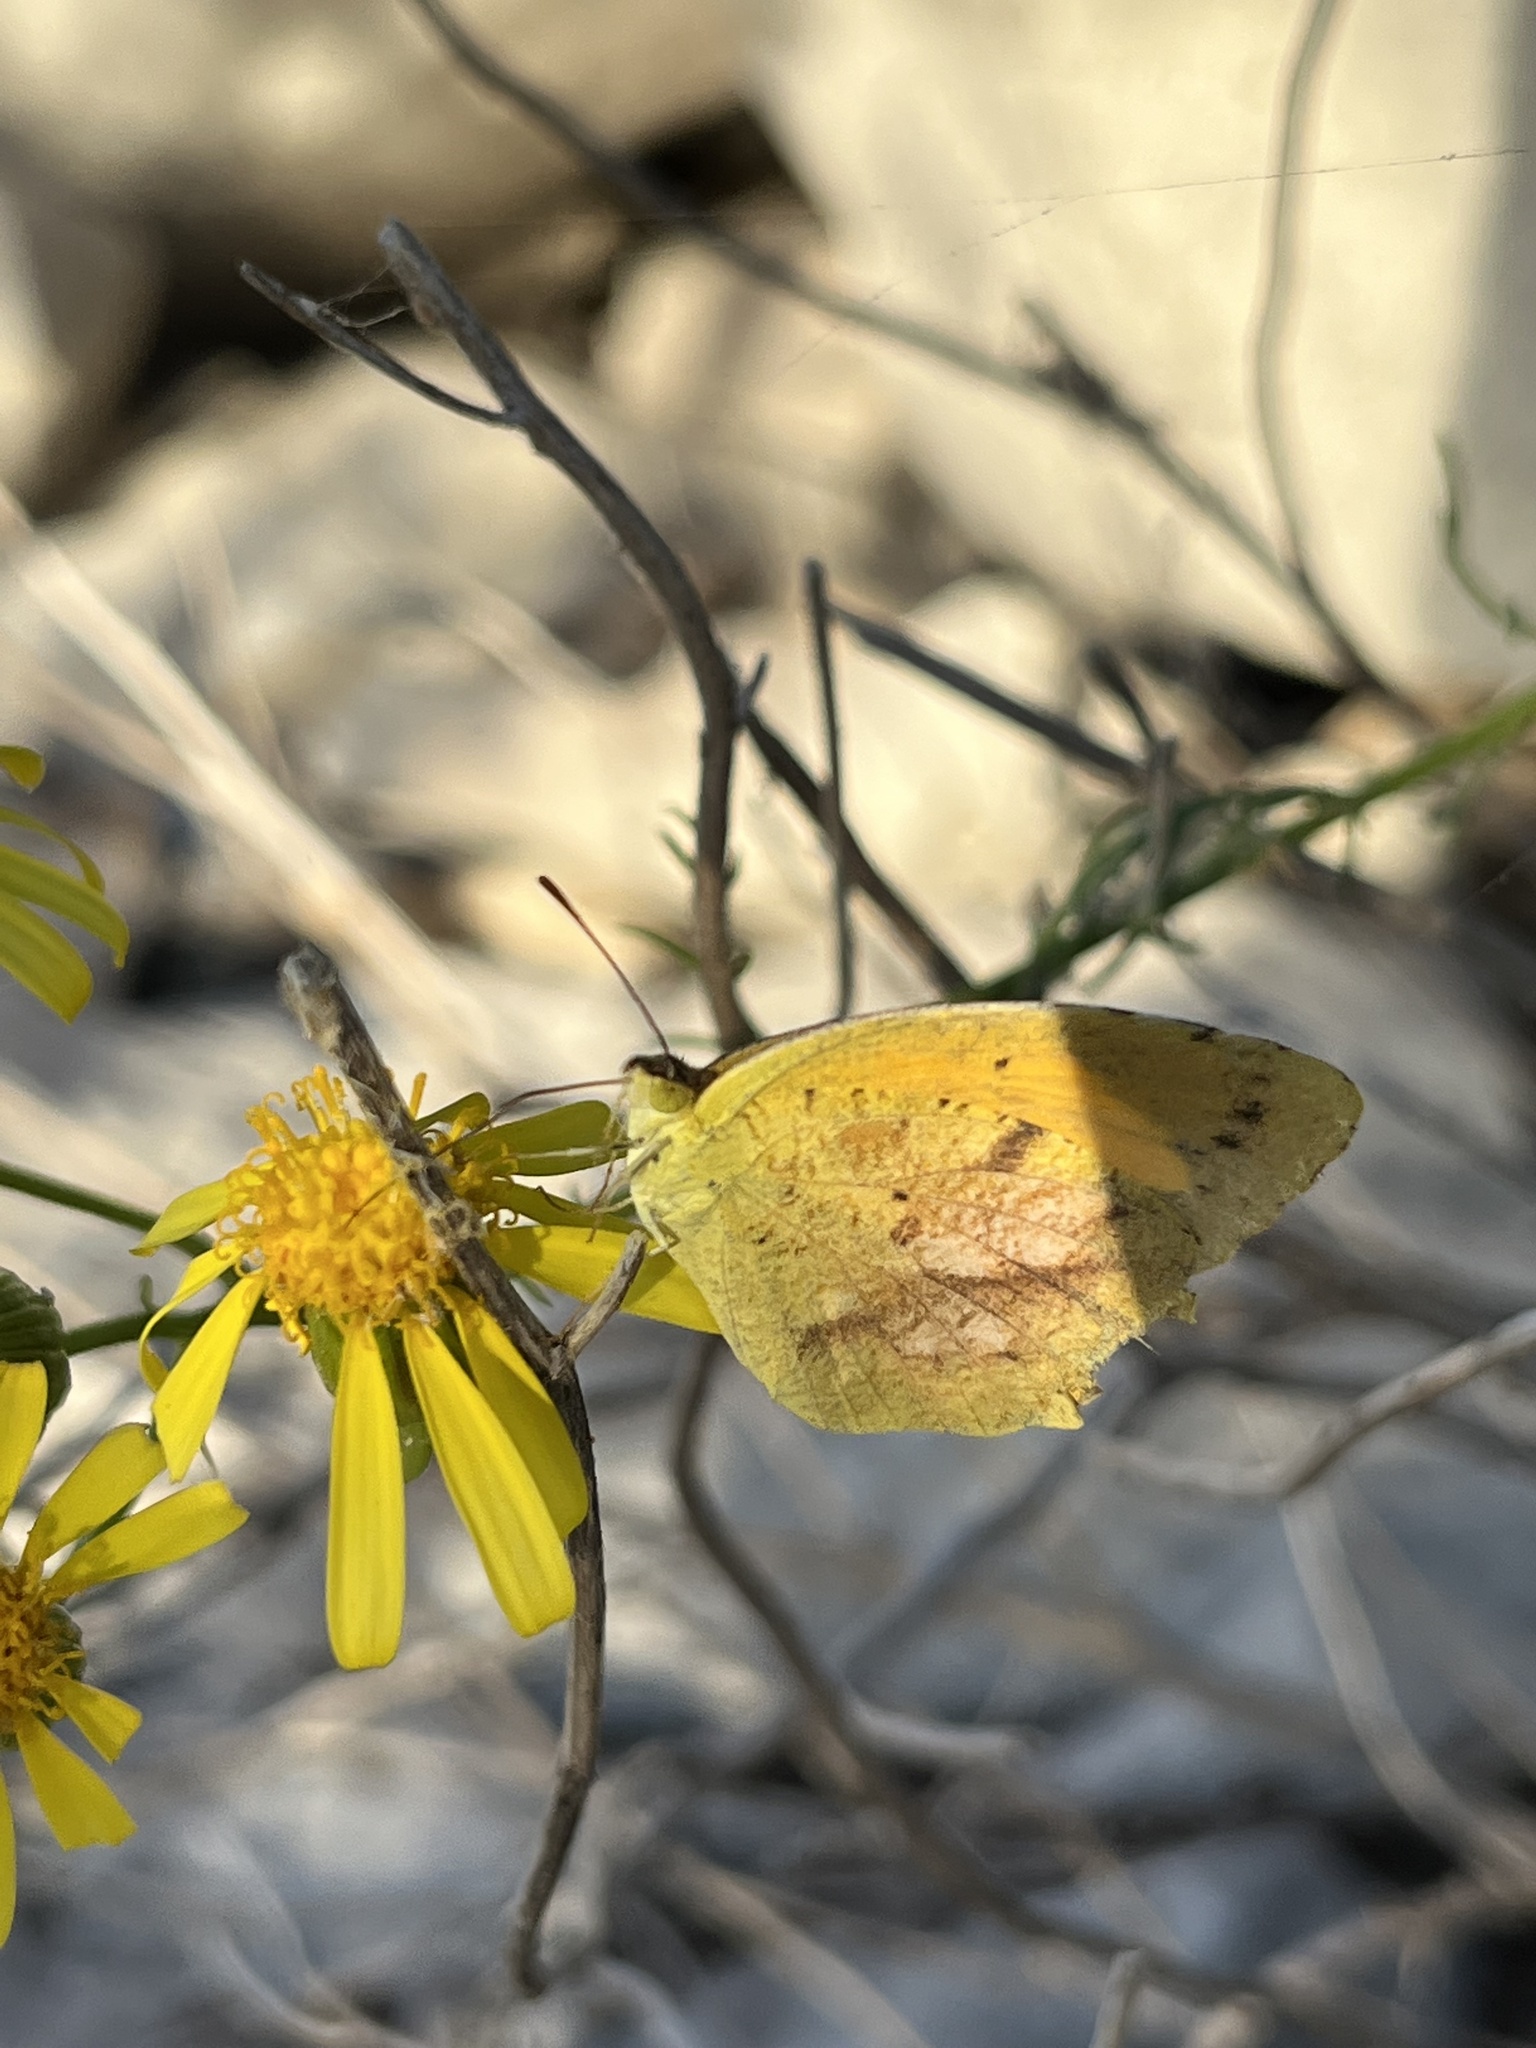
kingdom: Animalia
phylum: Arthropoda
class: Insecta
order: Lepidoptera
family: Pieridae
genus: Abaeis
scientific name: Abaeis nicippe
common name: Sleepy orange
